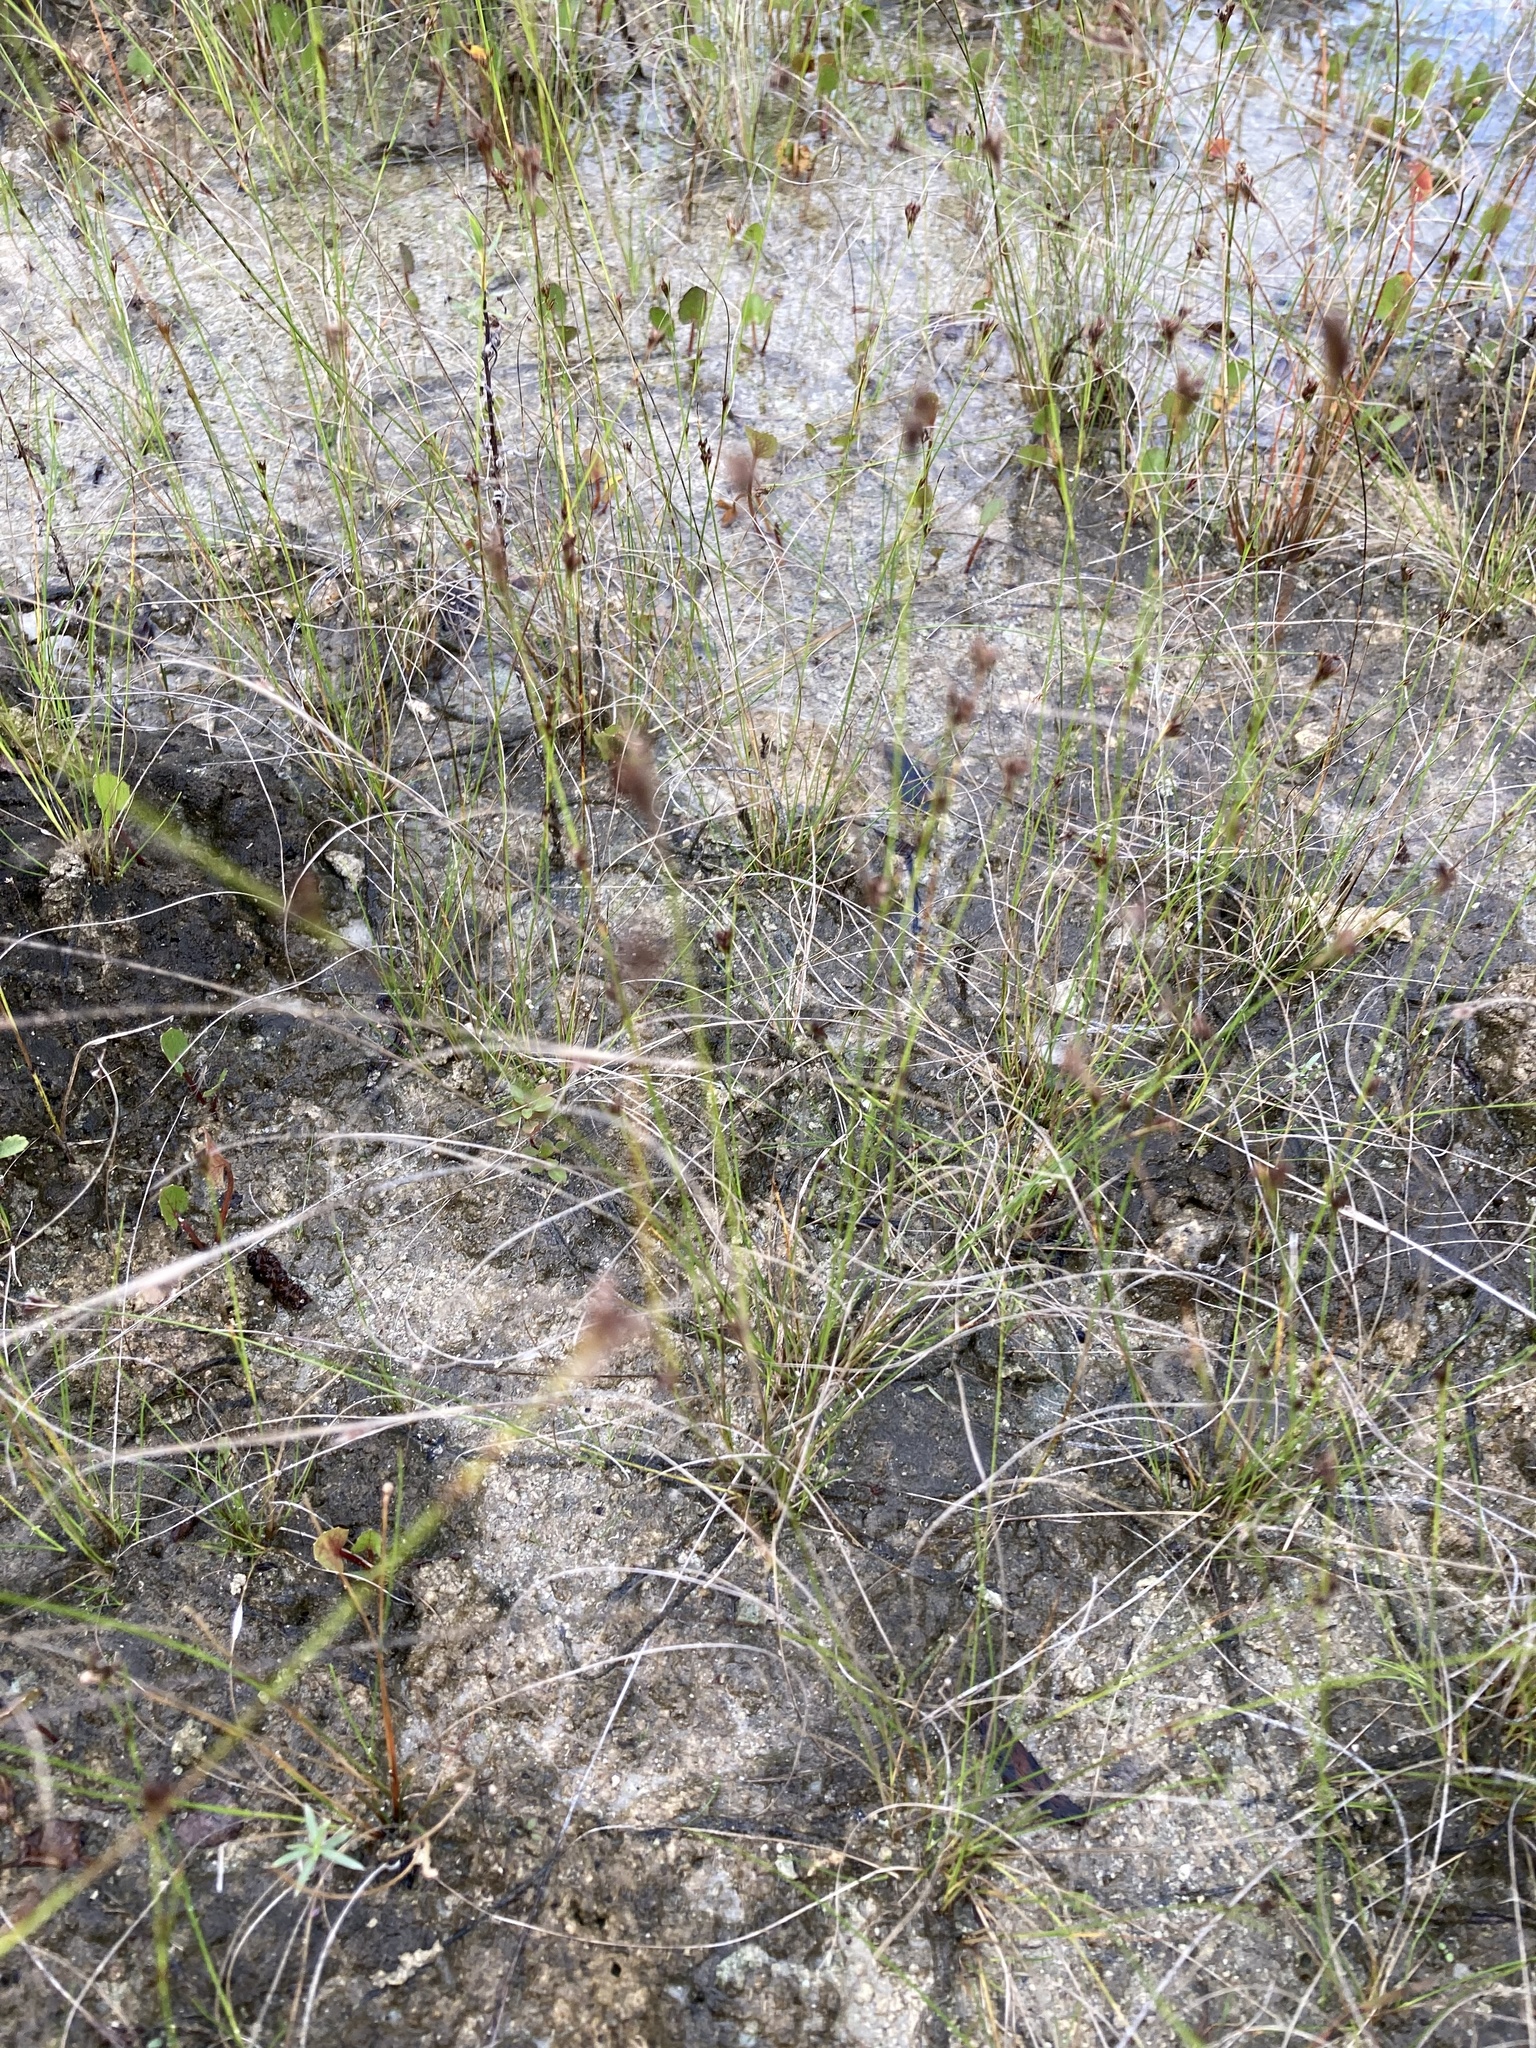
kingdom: Plantae
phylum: Tracheophyta
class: Liliopsida
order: Poales
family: Cyperaceae
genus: Rhynchospora
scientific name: Rhynchospora divergens
